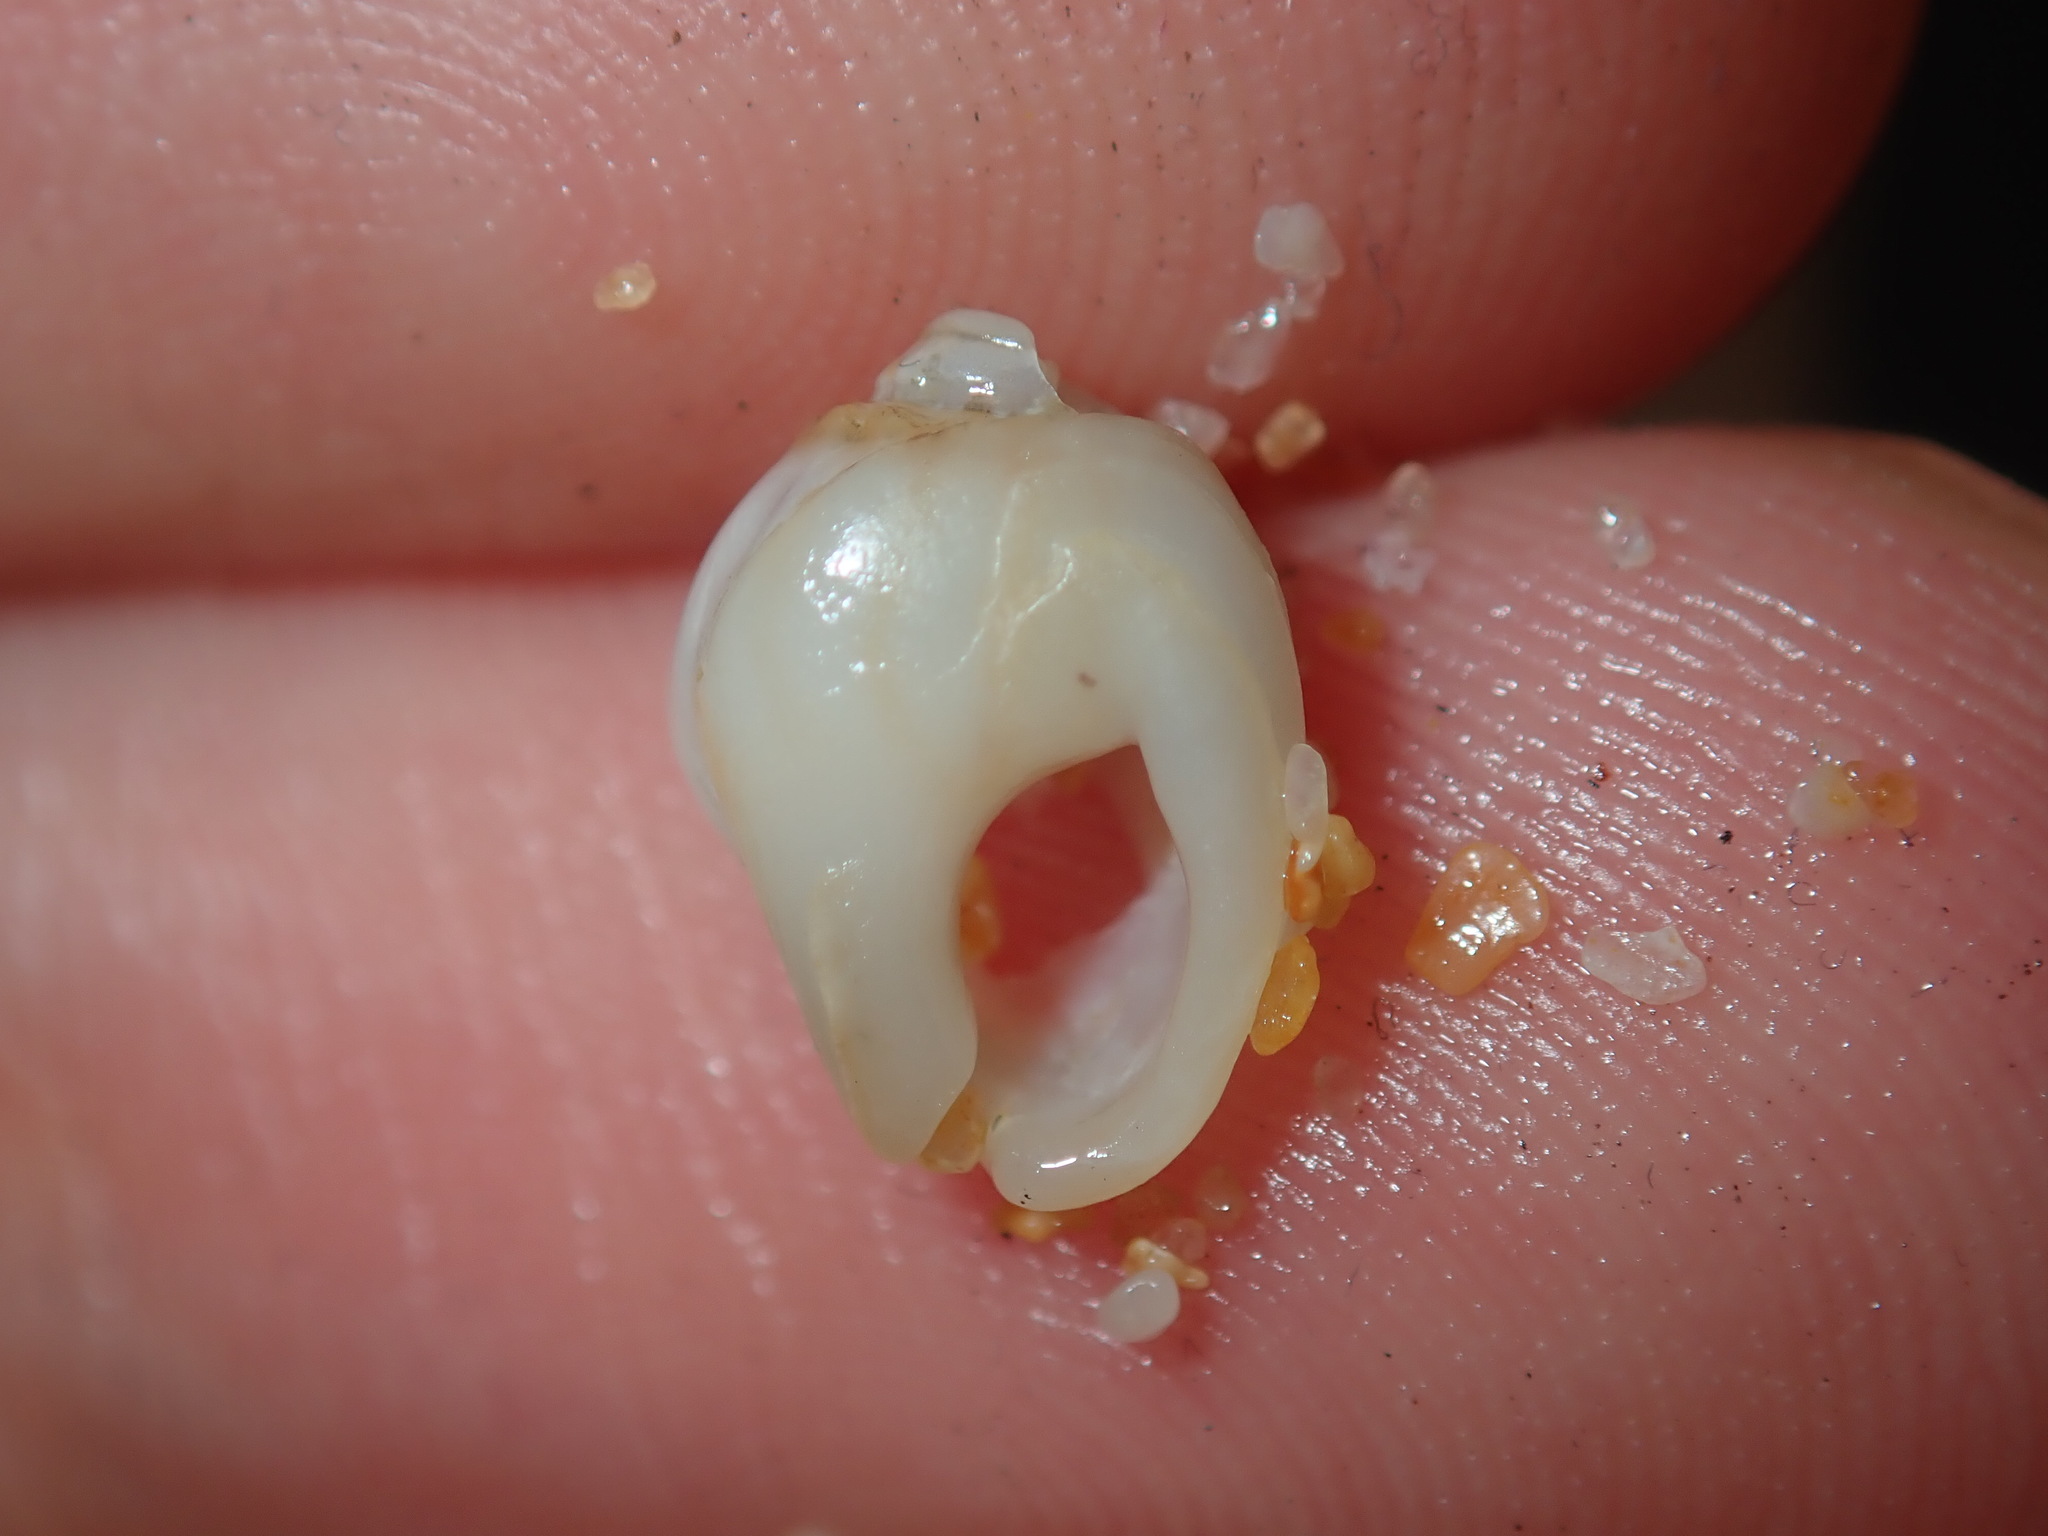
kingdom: Animalia
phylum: Mollusca
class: Gastropoda
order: Neogastropoda
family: Nassariidae
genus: Nassarius
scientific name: Nassarius jonasii
